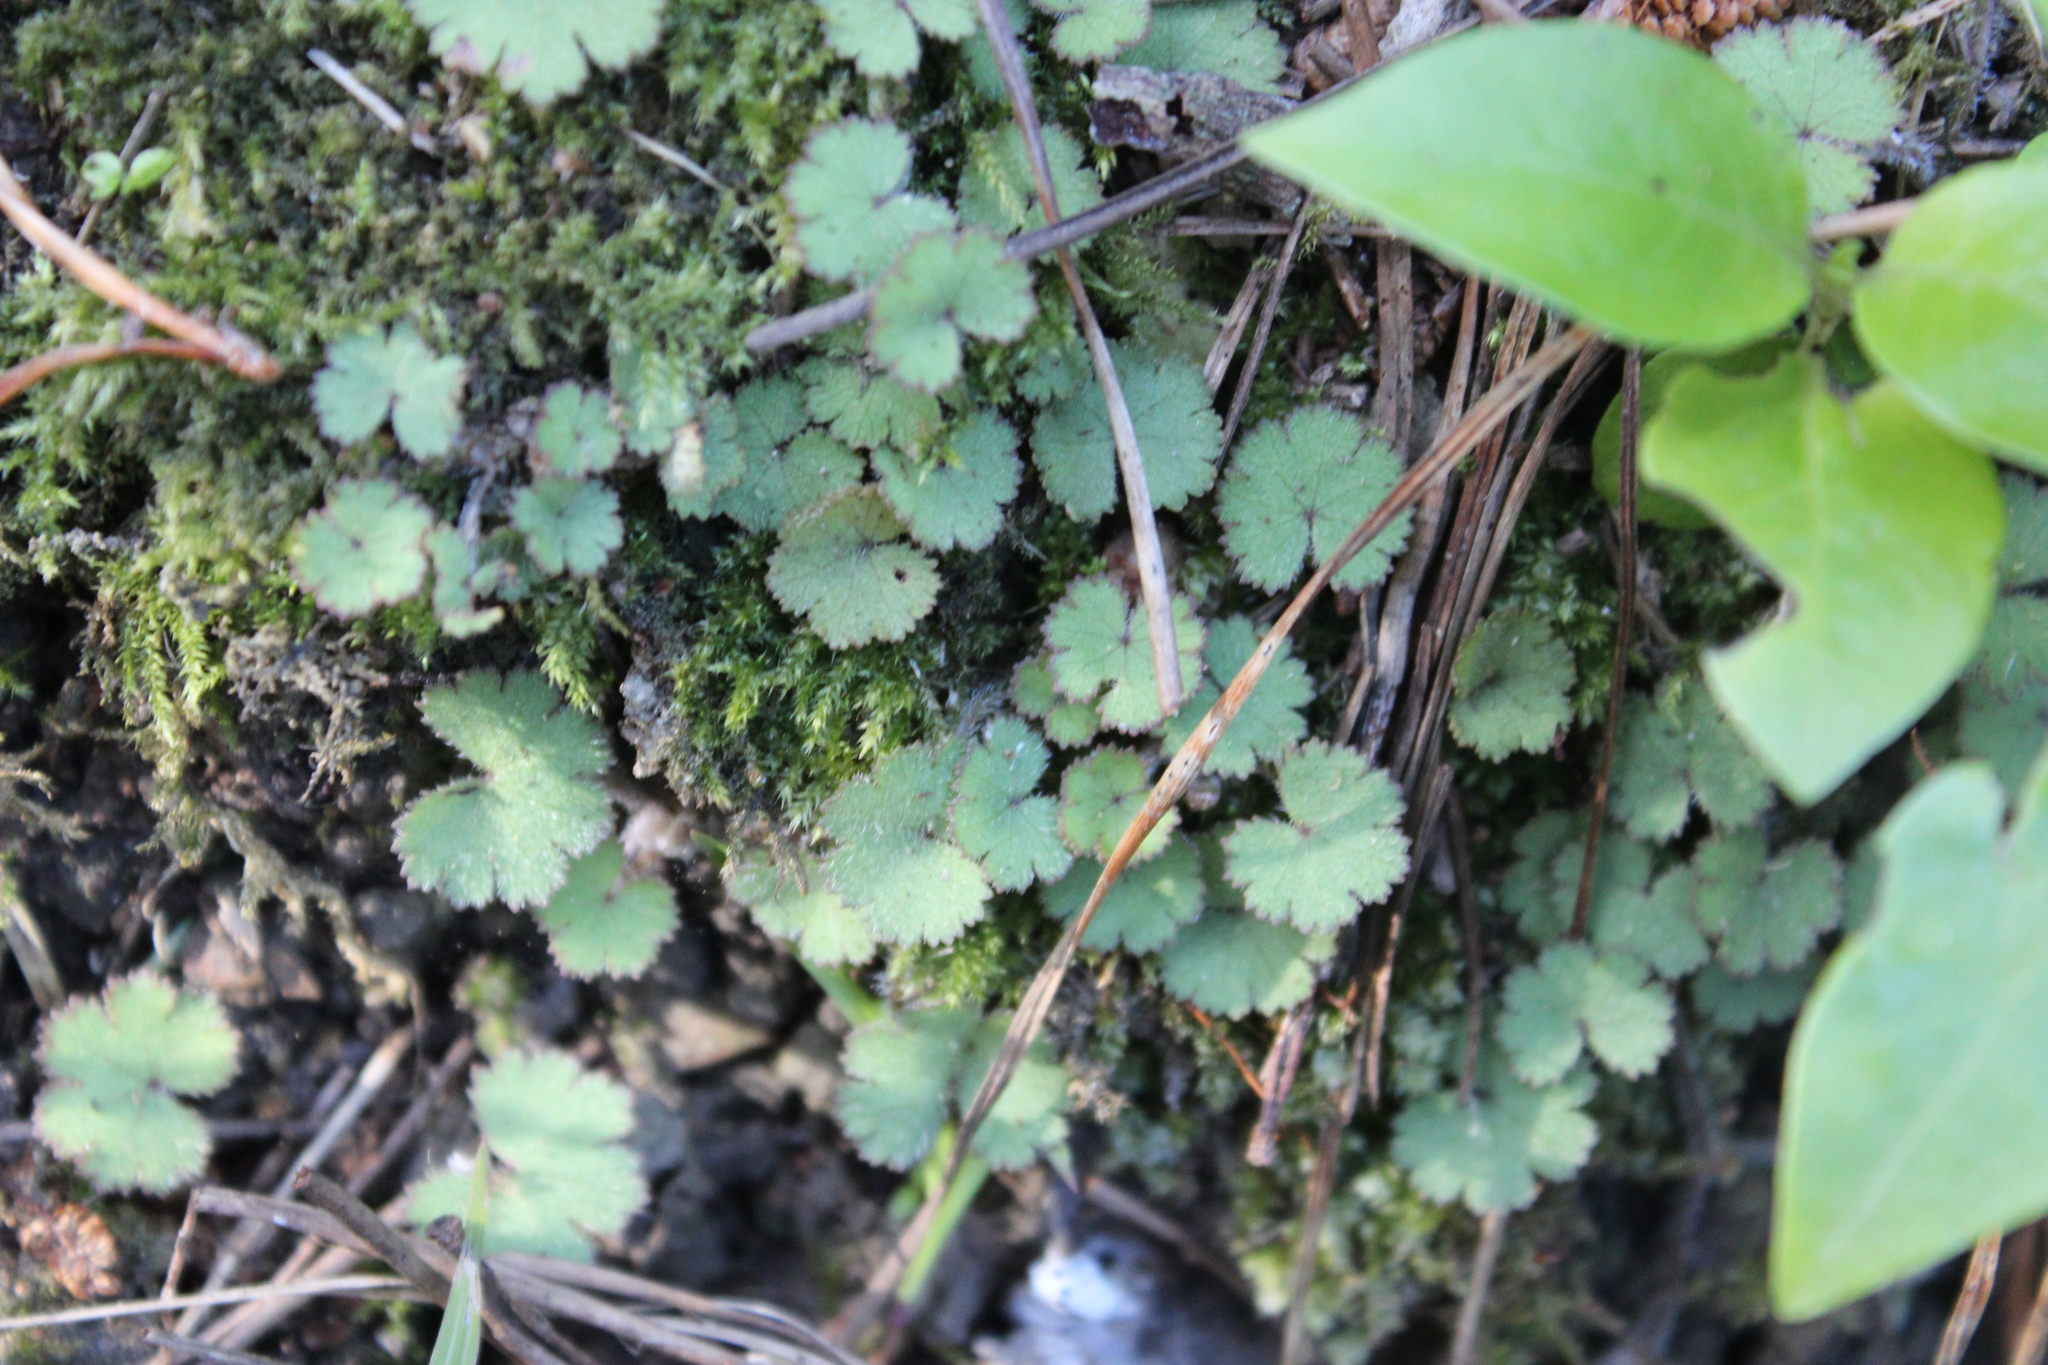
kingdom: Plantae
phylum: Tracheophyta
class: Magnoliopsida
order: Apiales
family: Araliaceae
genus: Hydrocotyle
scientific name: Hydrocotyle moschata
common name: Hairy pennywort
